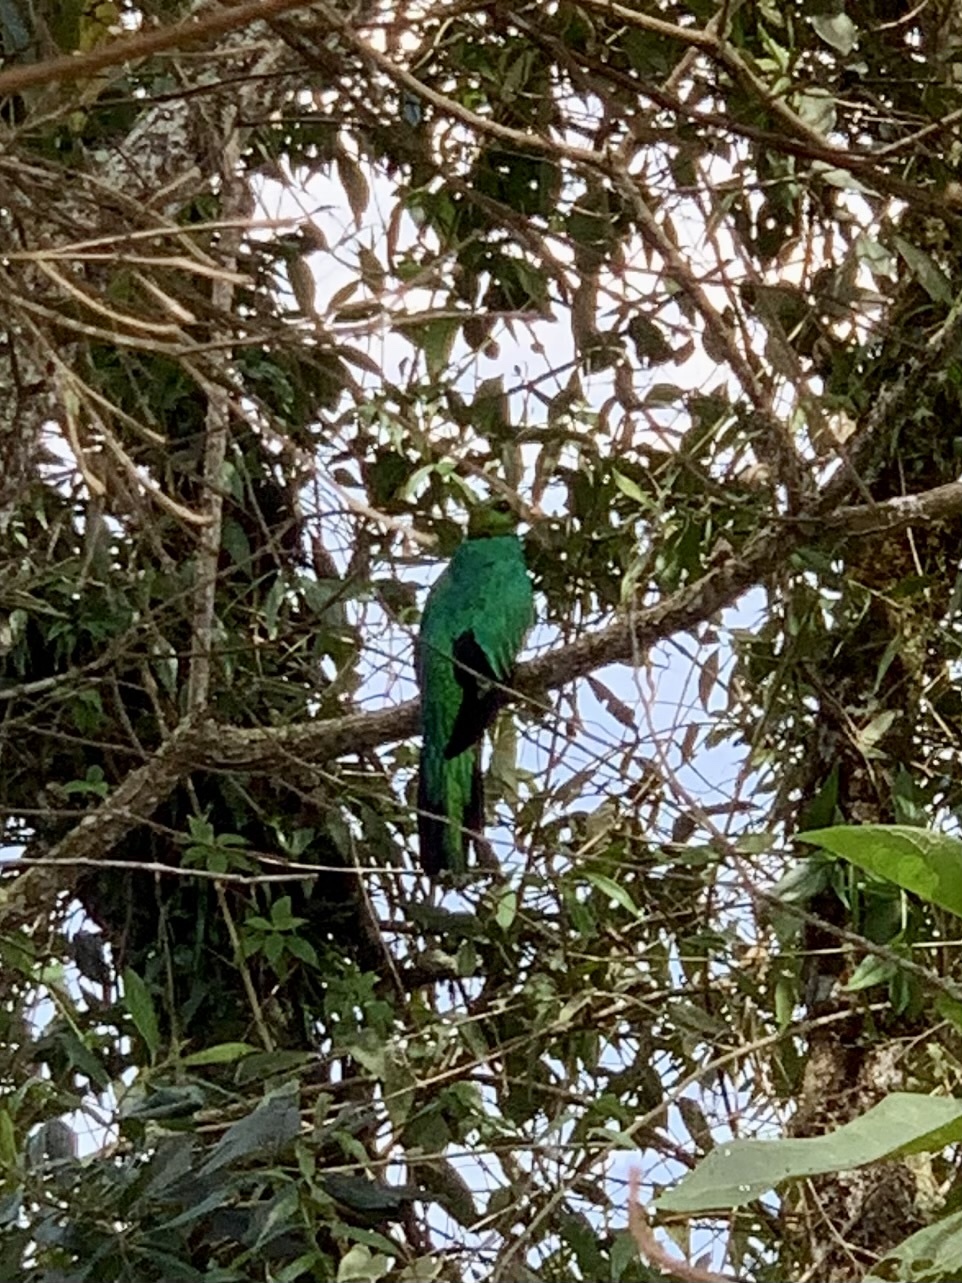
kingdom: Animalia
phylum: Chordata
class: Aves
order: Trogoniformes
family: Trogonidae
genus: Pharomachrus
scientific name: Pharomachrus auriceps
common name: Golden-headed quetzal
